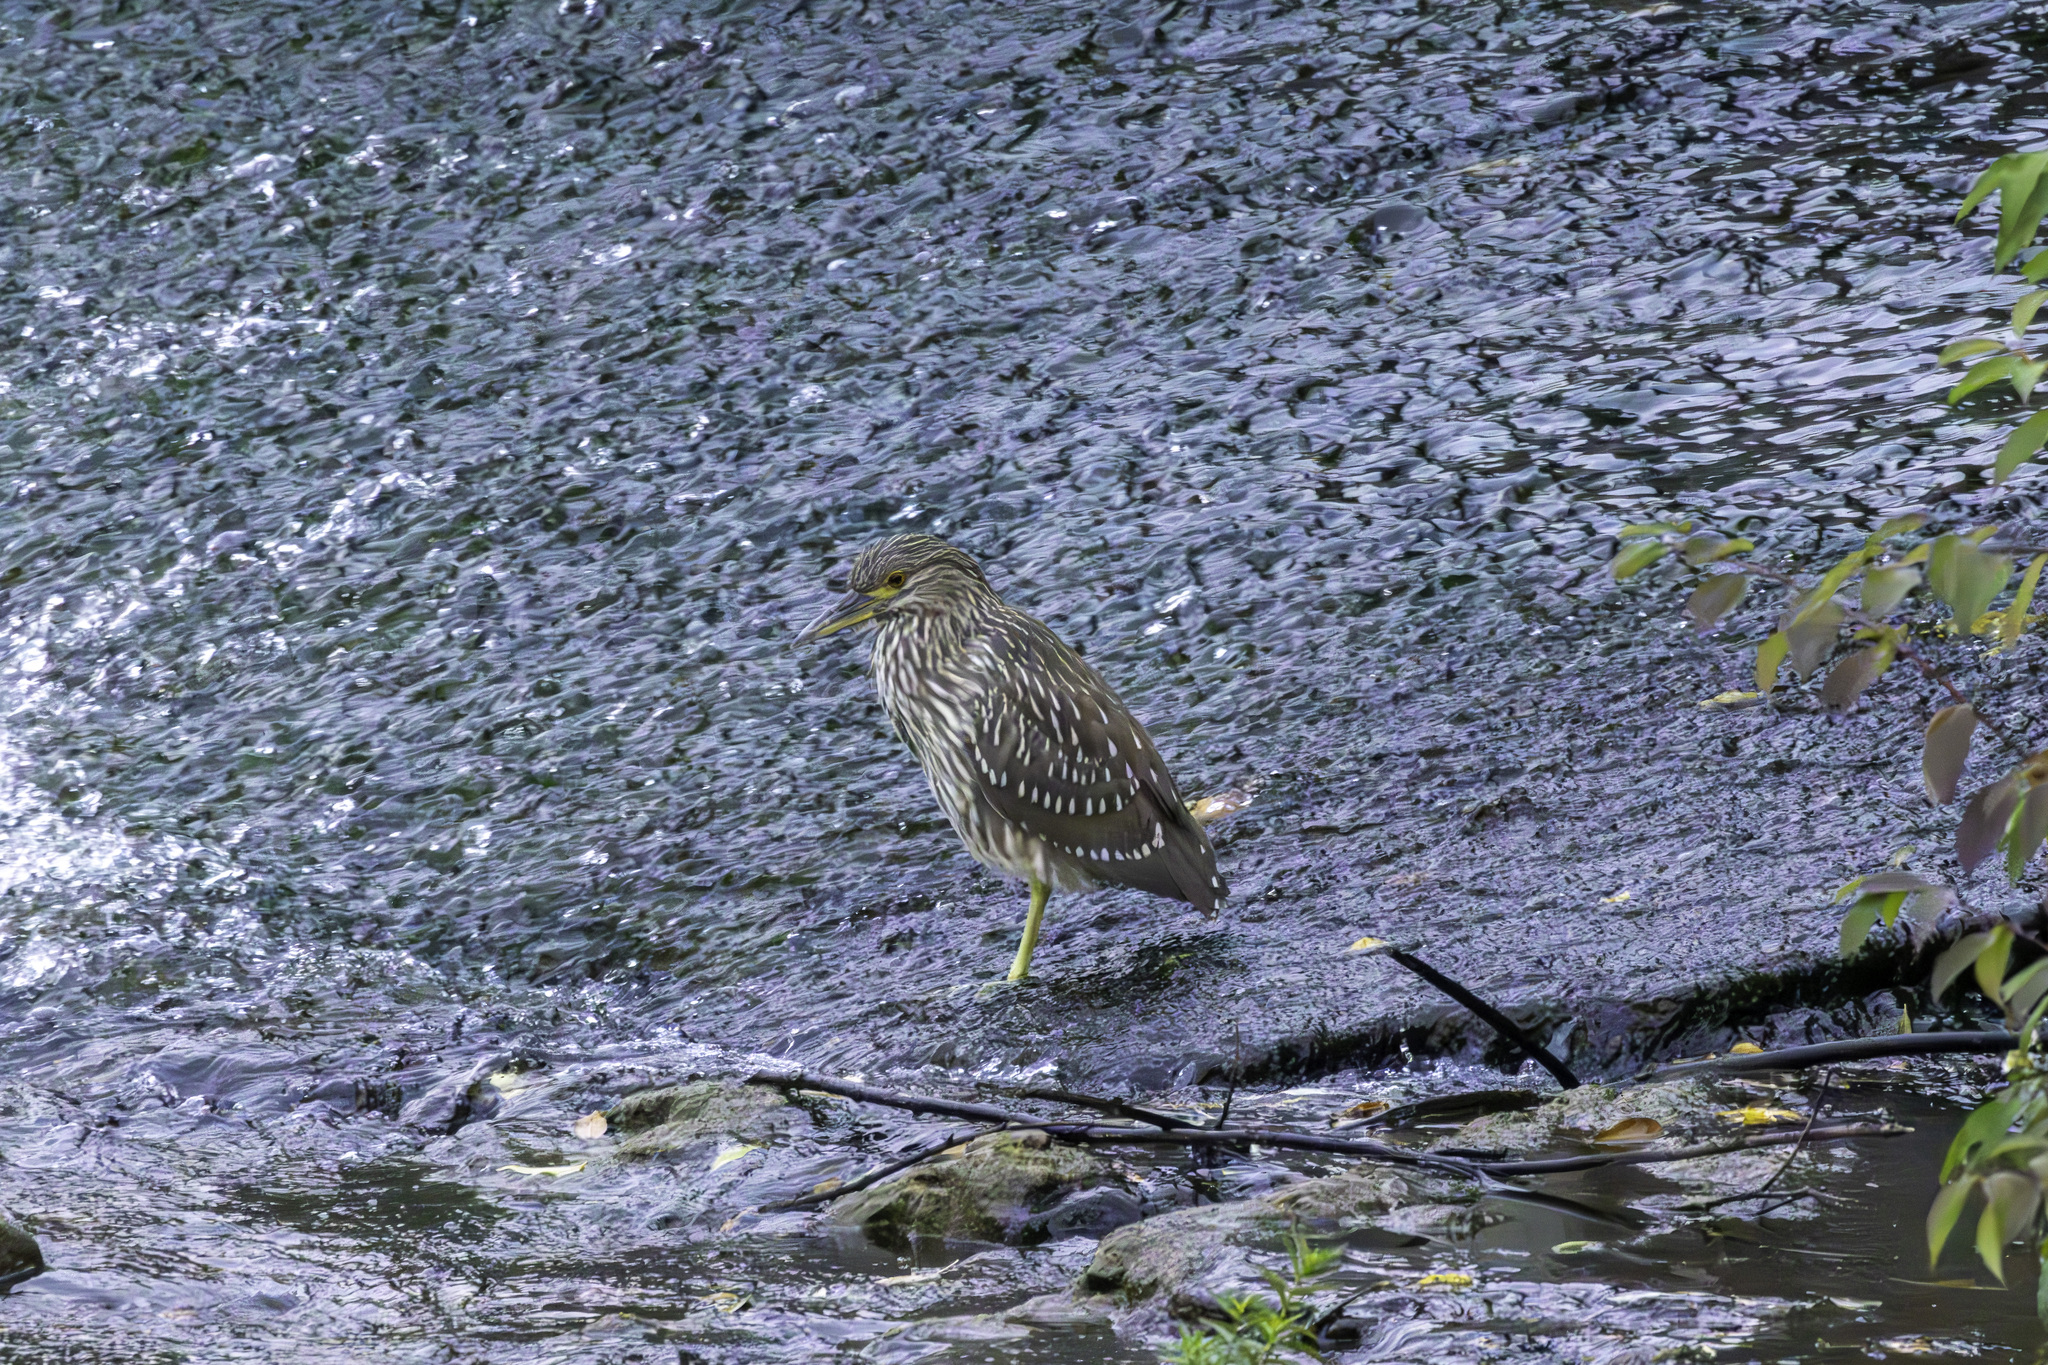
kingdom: Animalia
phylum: Chordata
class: Aves
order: Pelecaniformes
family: Ardeidae
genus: Nycticorax
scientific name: Nycticorax nycticorax
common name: Black-crowned night heron
